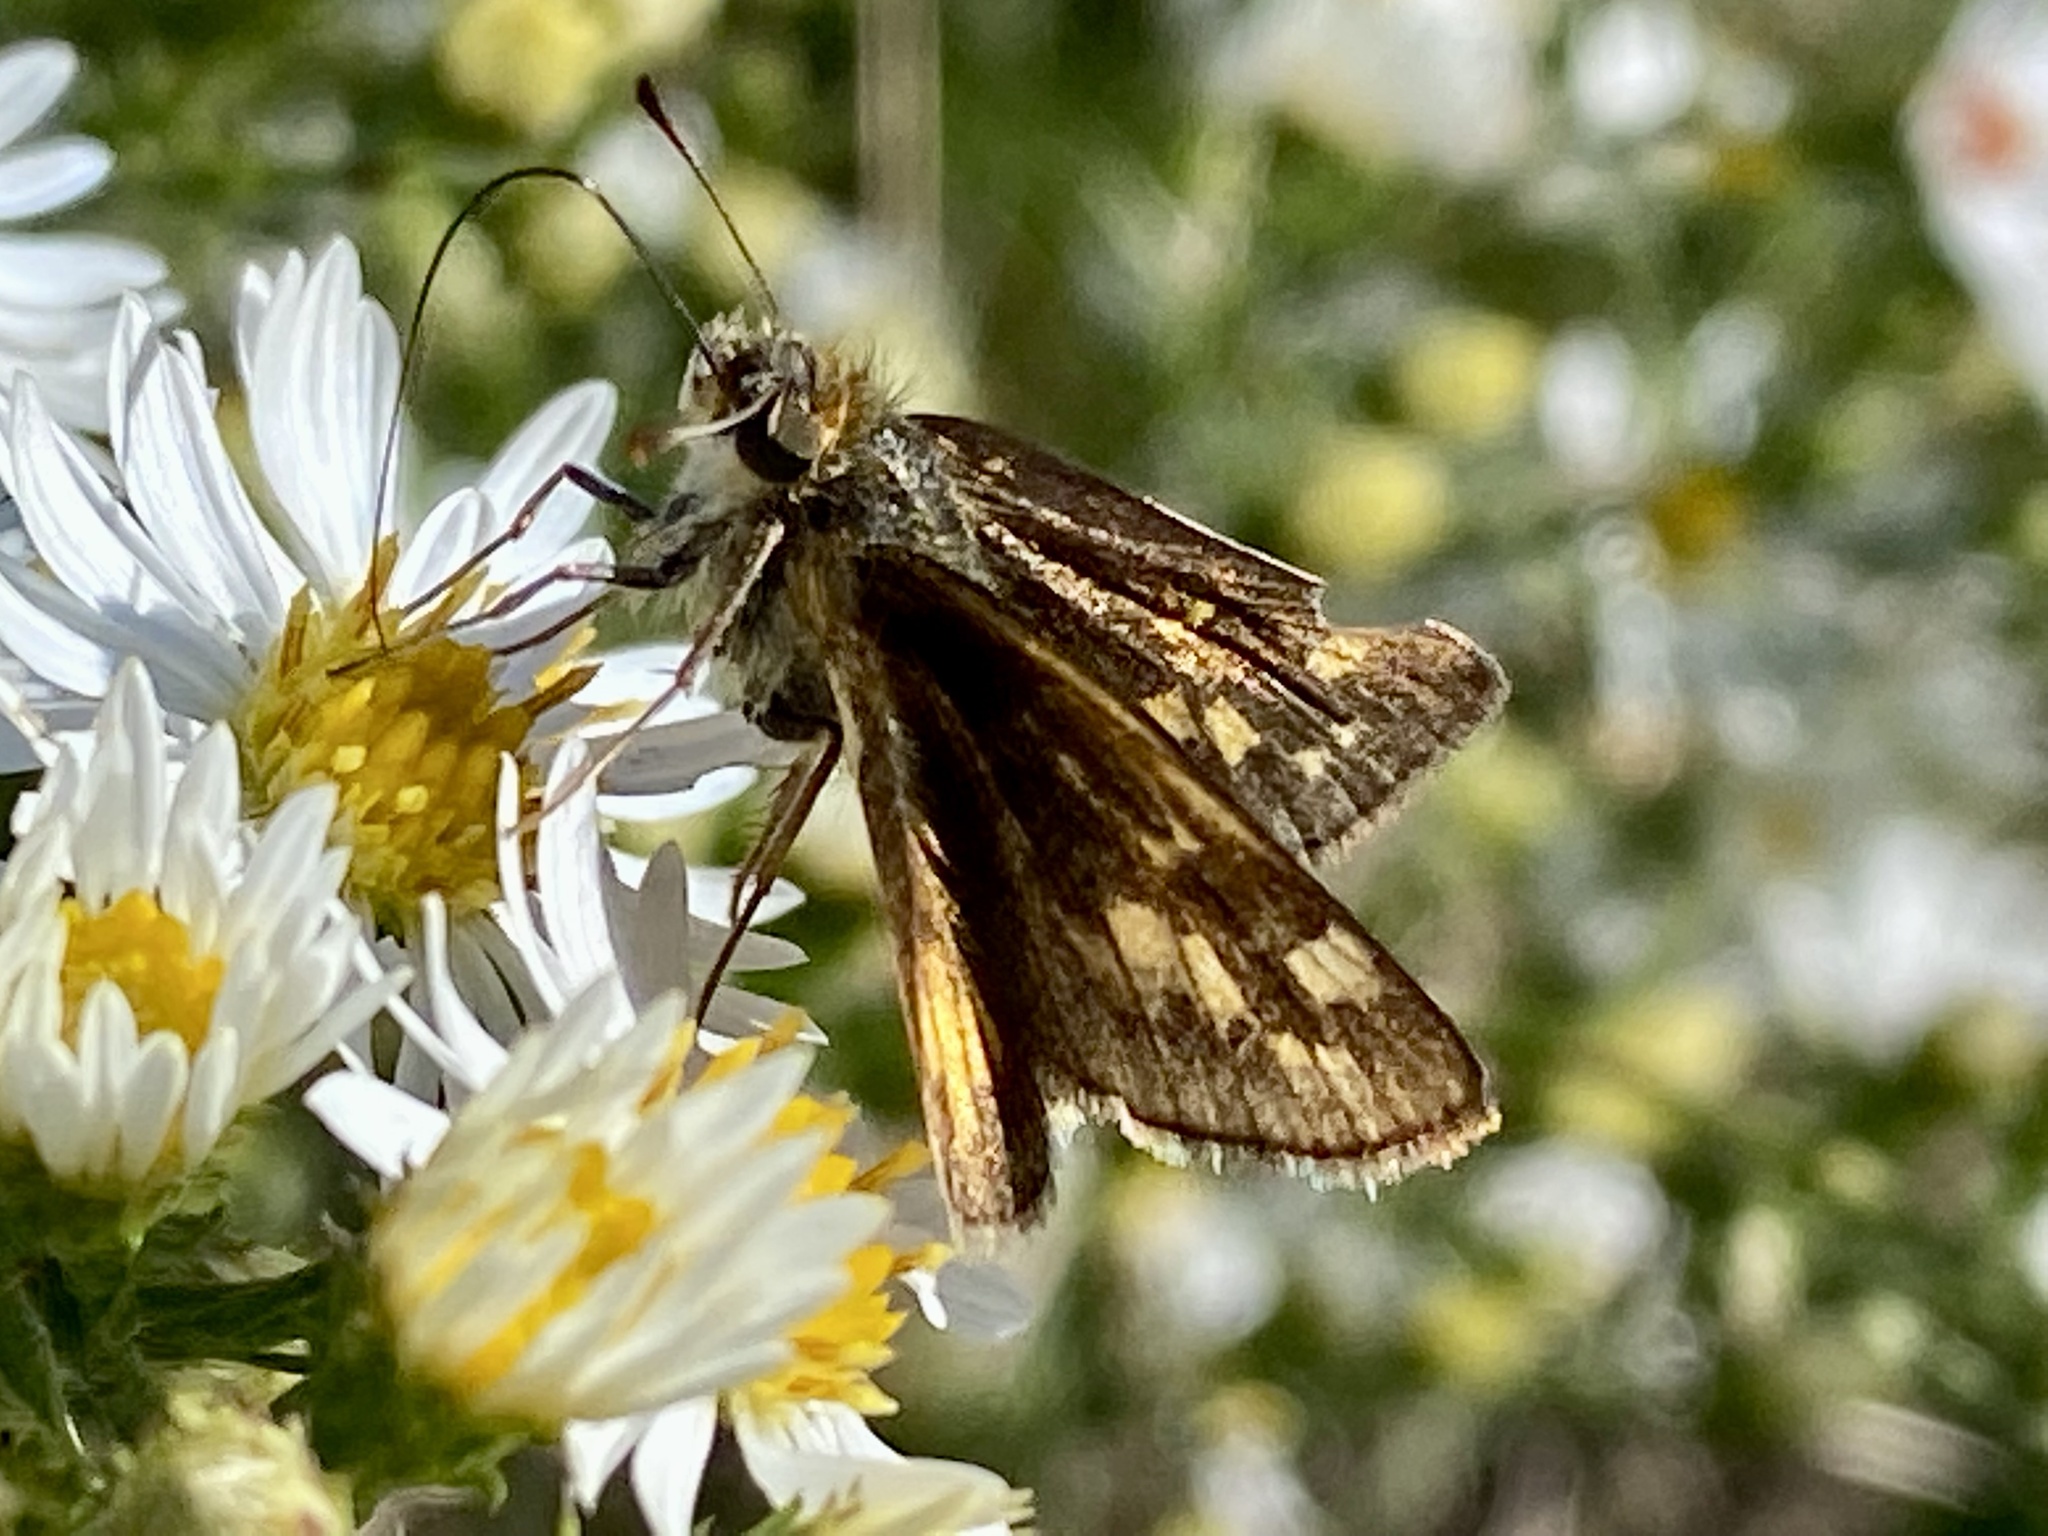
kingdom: Animalia
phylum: Arthropoda
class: Insecta
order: Lepidoptera
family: Hesperiidae
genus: Polites
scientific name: Polites coras
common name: Peck's skipper
